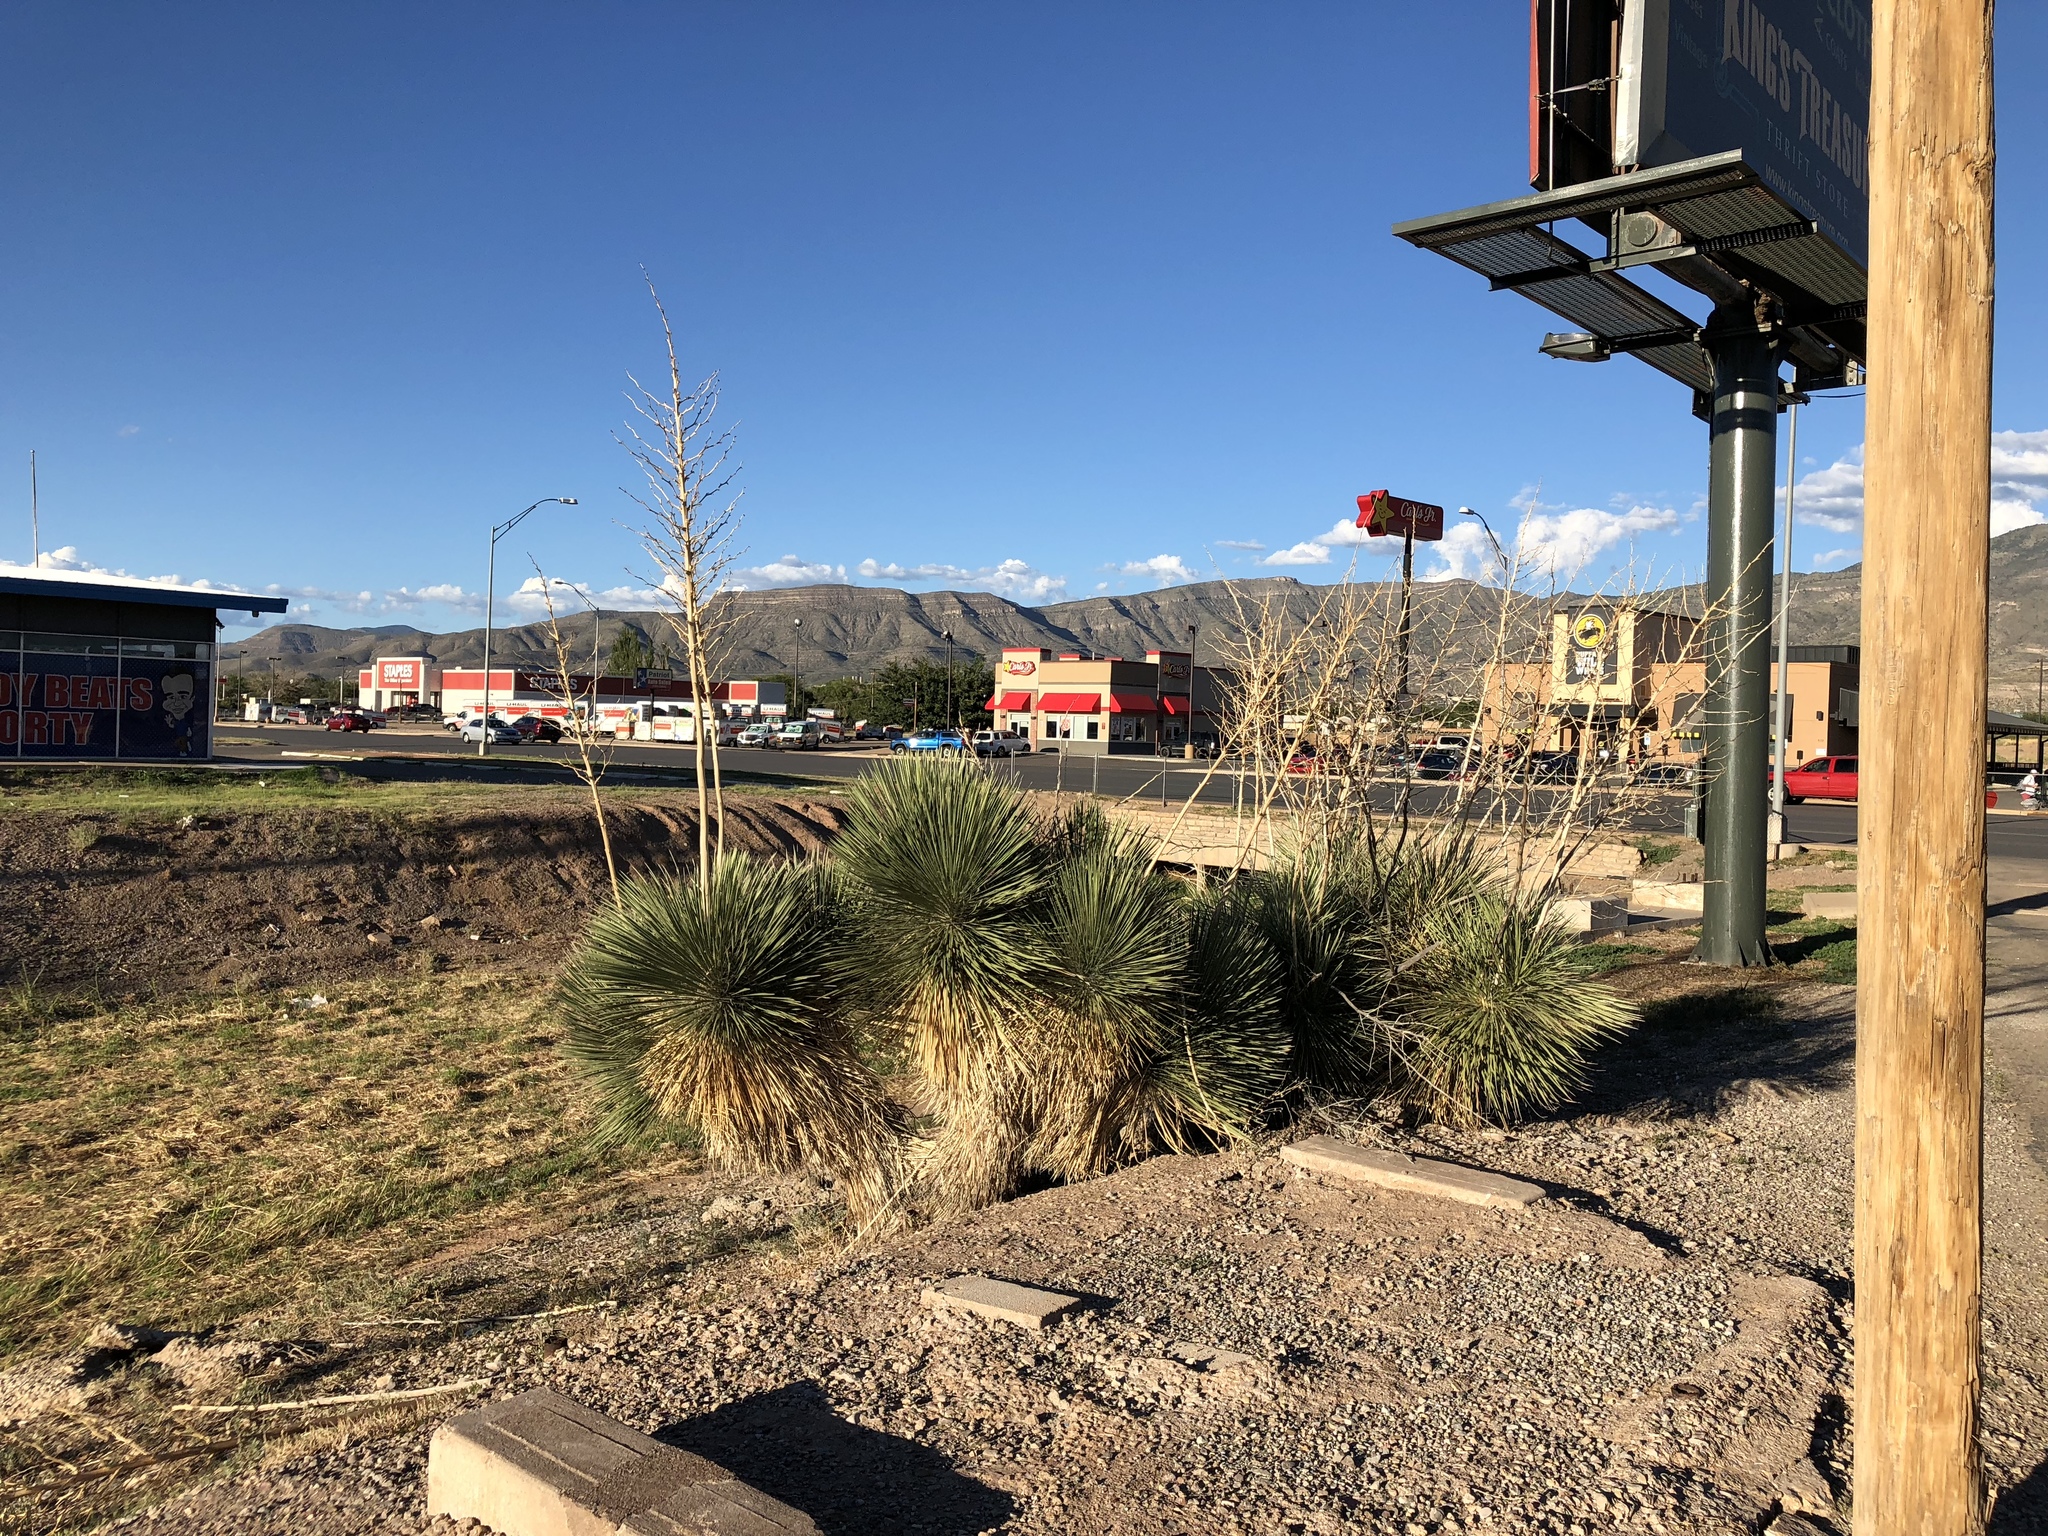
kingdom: Plantae
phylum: Tracheophyta
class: Liliopsida
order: Asparagales
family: Asparagaceae
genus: Yucca
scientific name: Yucca elata
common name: Palmella
